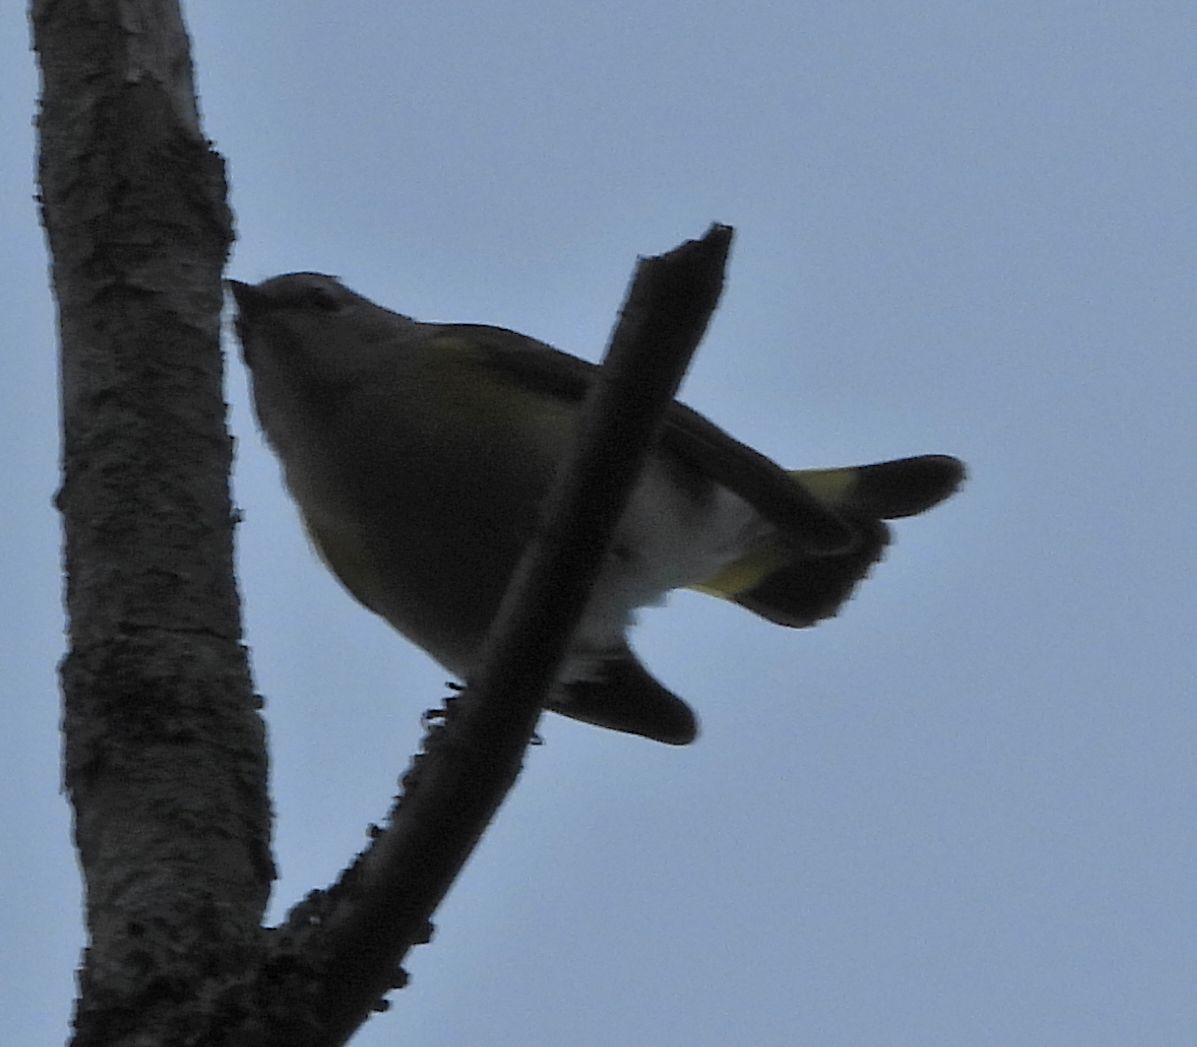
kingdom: Animalia
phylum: Chordata
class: Aves
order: Passeriformes
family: Parulidae
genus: Setophaga
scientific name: Setophaga ruticilla
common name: American redstart
